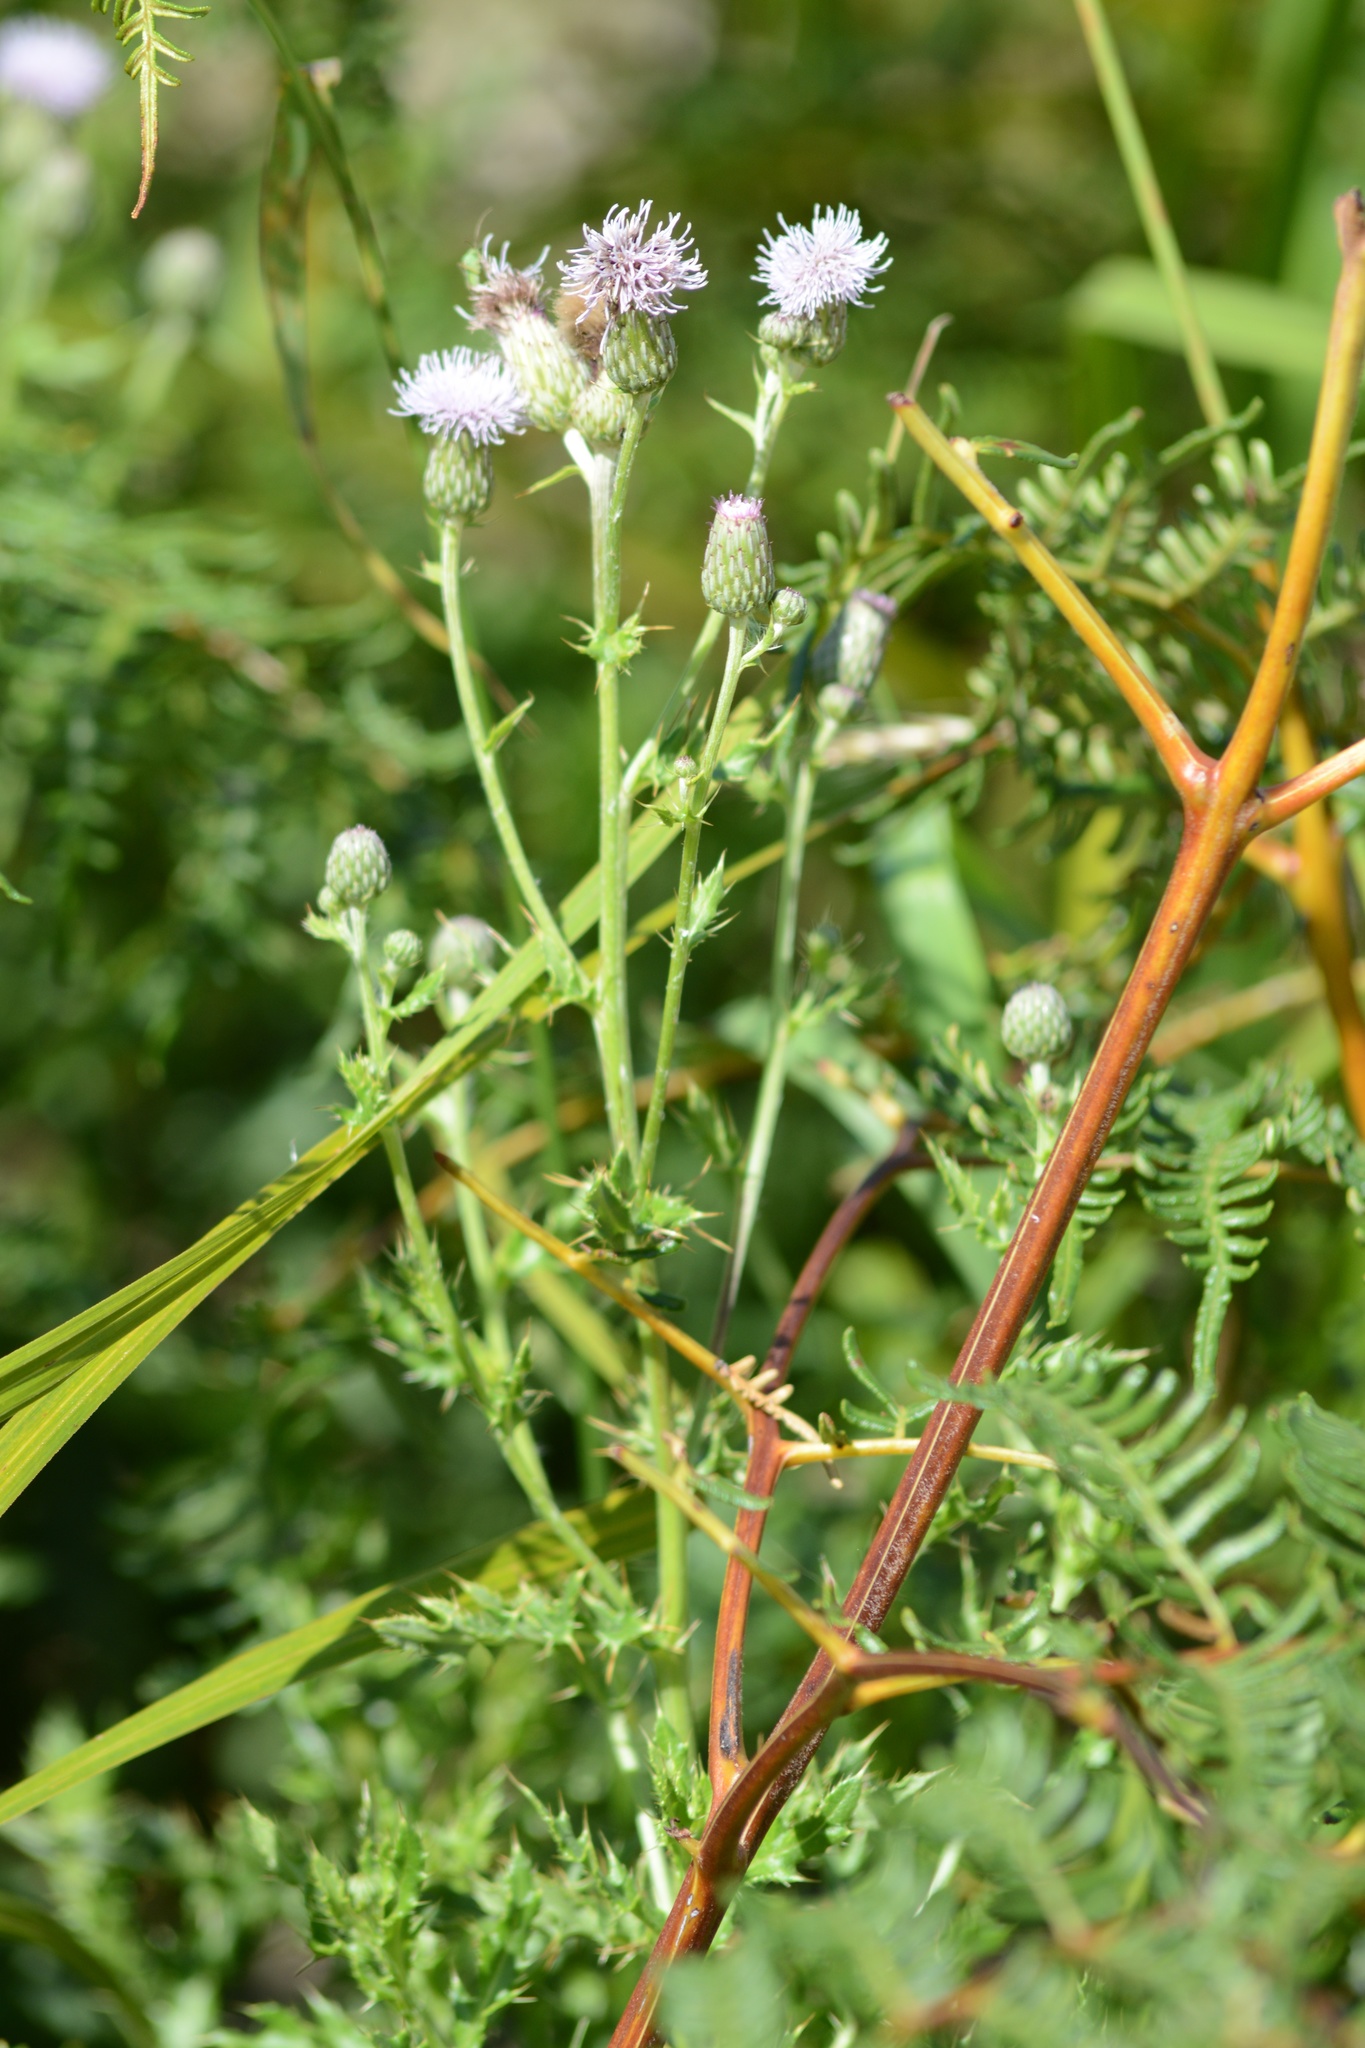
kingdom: Plantae
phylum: Tracheophyta
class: Magnoliopsida
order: Asterales
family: Asteraceae
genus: Cirsium
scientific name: Cirsium arvense
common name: Creeping thistle
